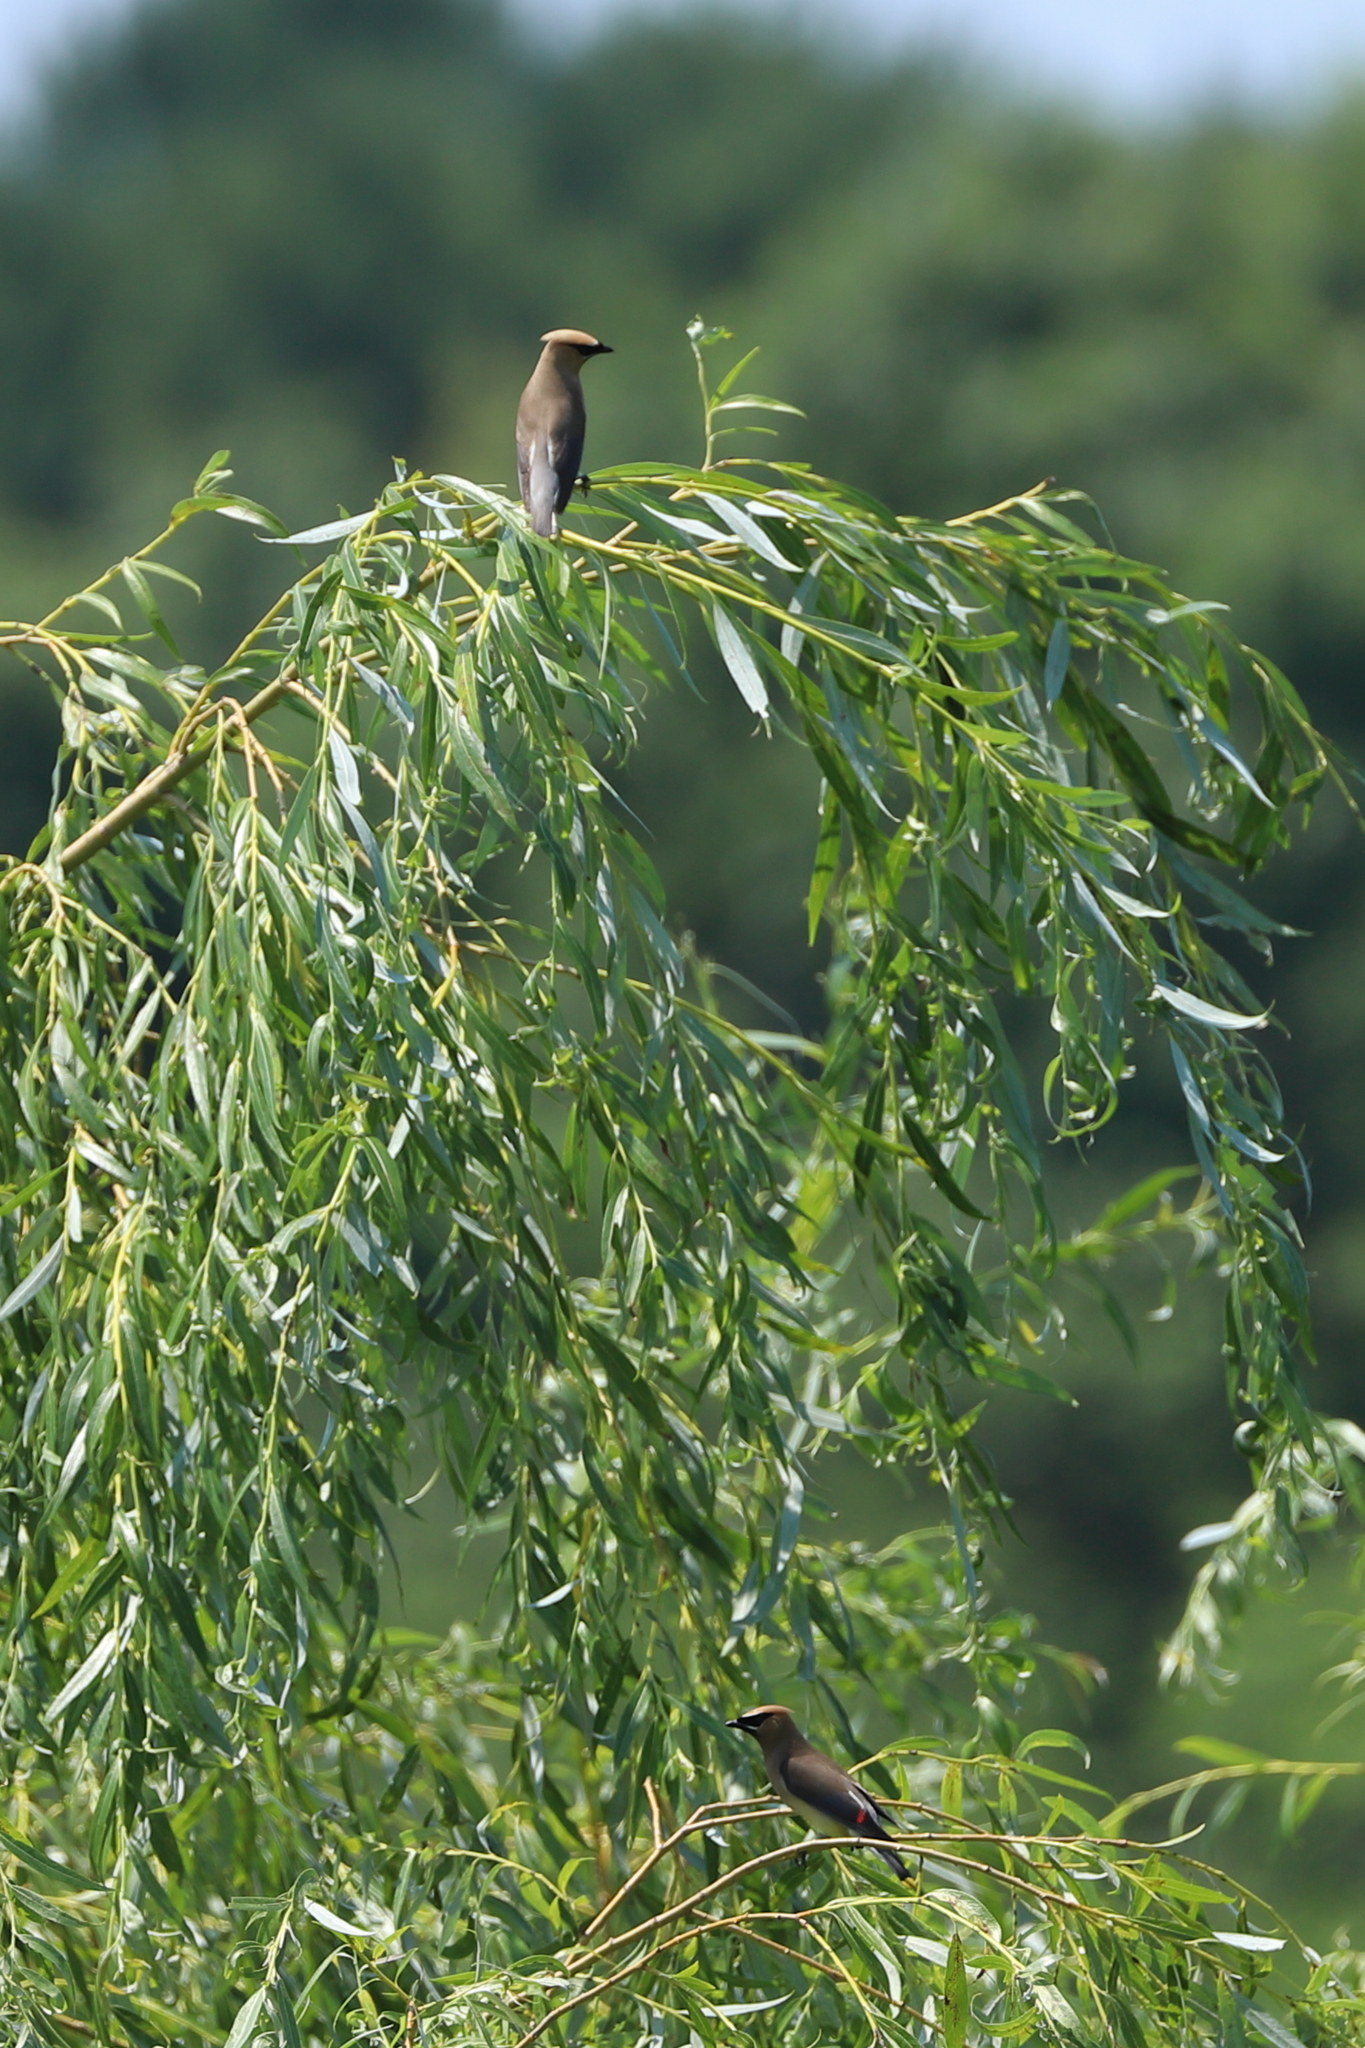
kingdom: Animalia
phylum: Chordata
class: Aves
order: Passeriformes
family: Bombycillidae
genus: Bombycilla
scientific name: Bombycilla cedrorum
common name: Cedar waxwing
